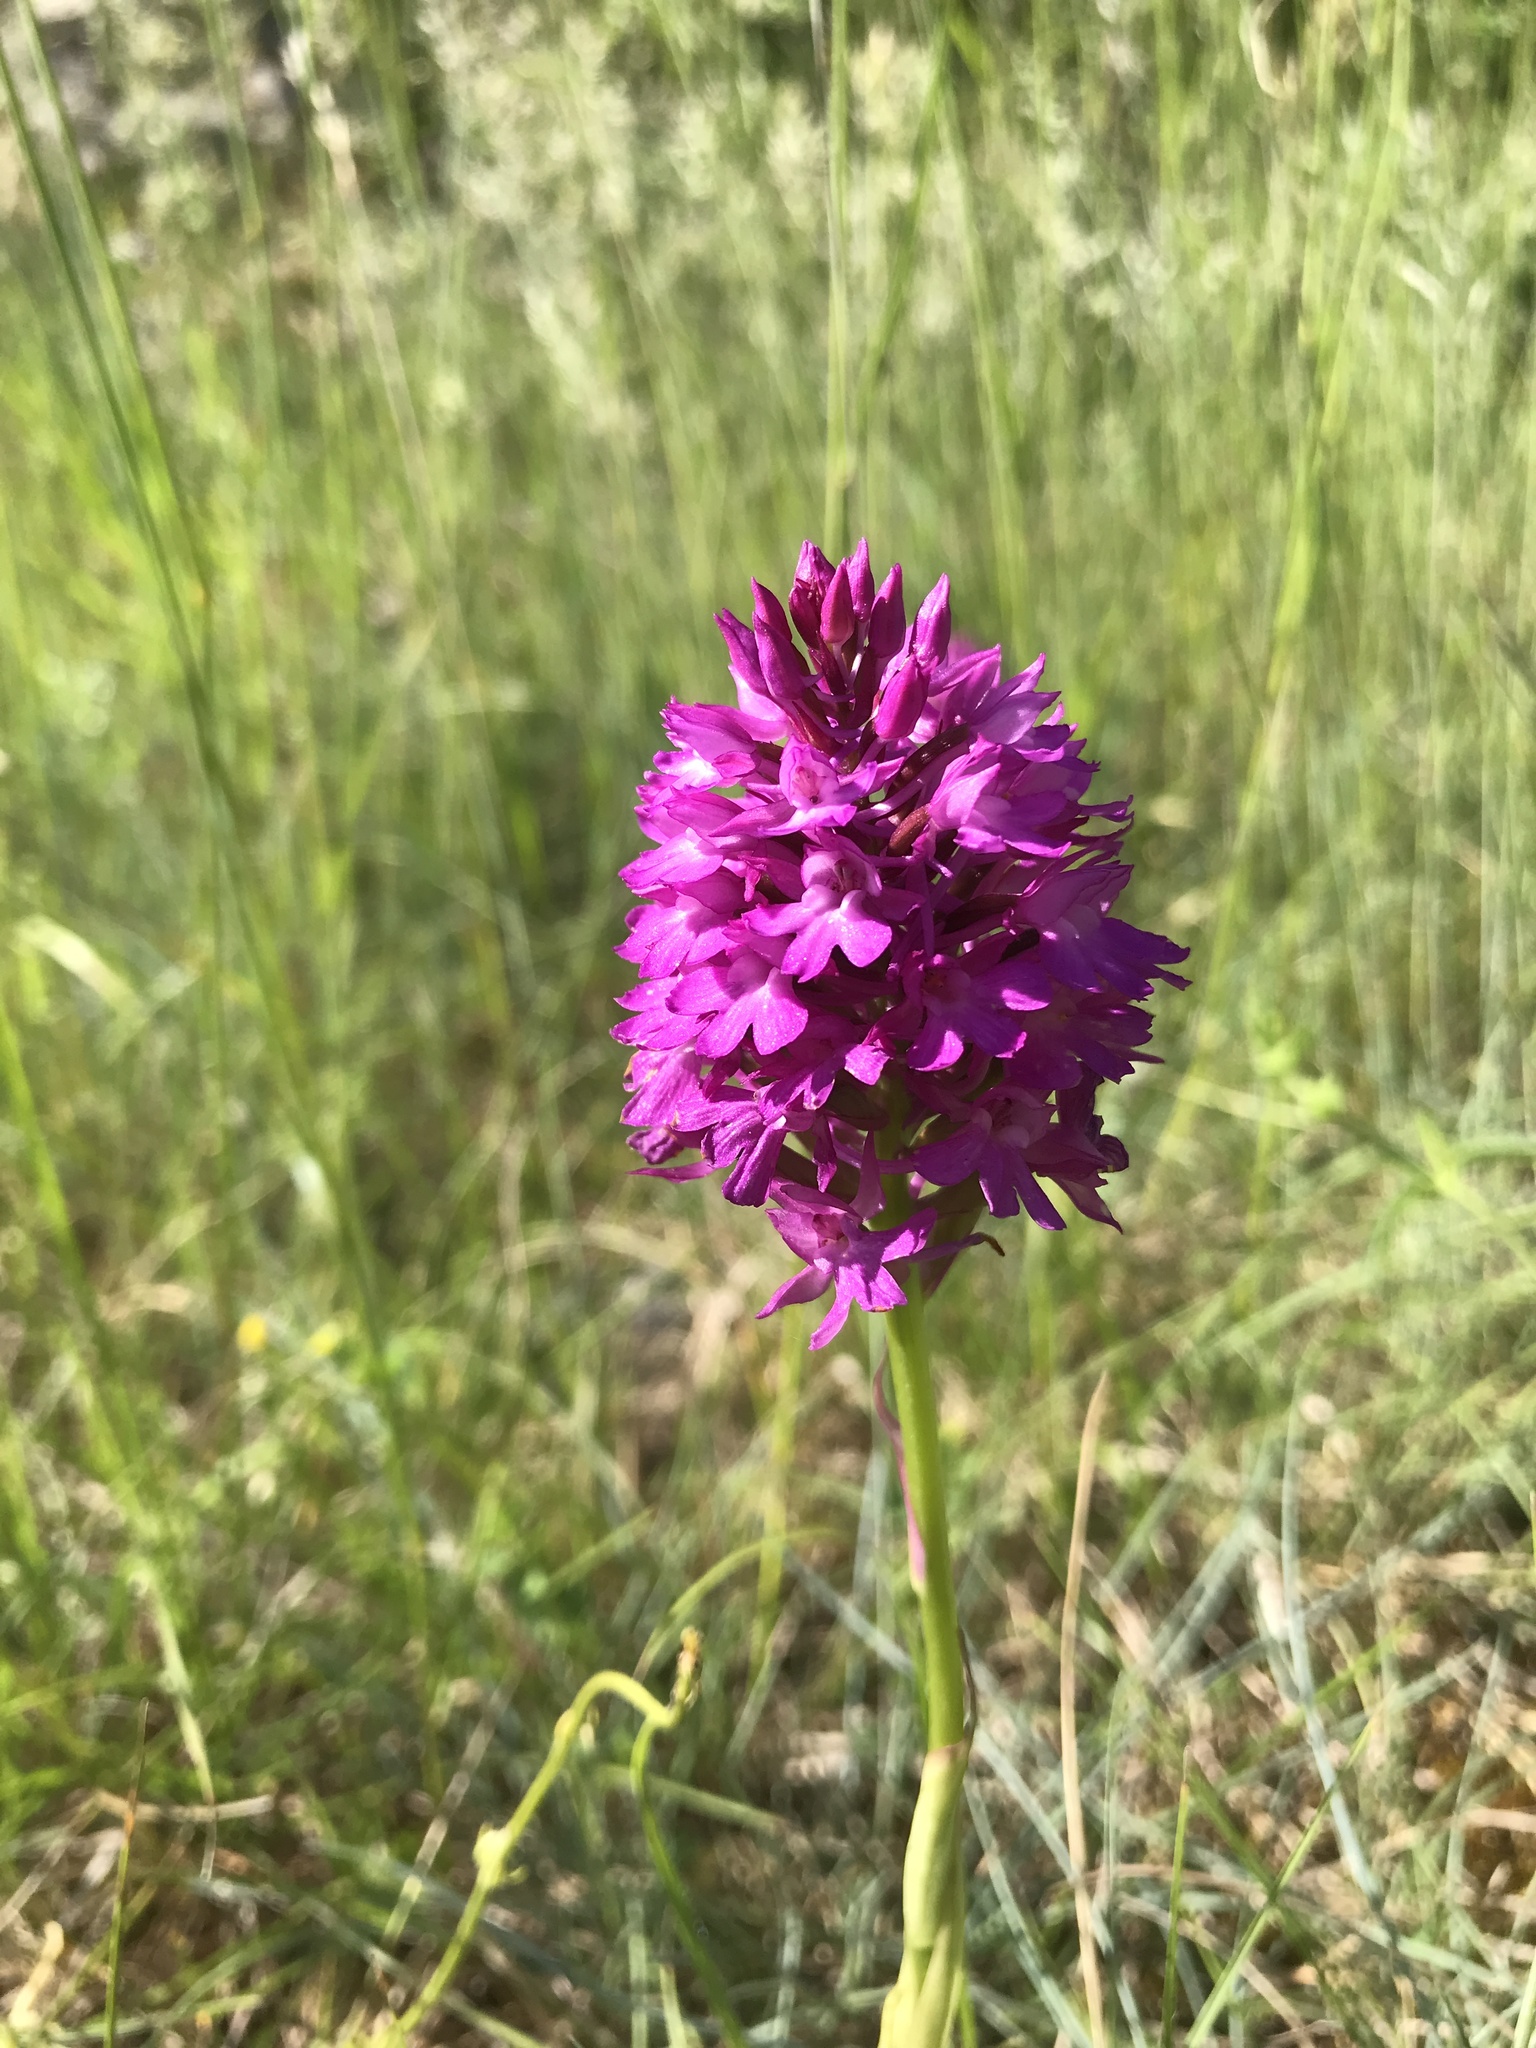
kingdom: Plantae
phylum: Tracheophyta
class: Liliopsida
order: Asparagales
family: Orchidaceae
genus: Anacamptis
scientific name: Anacamptis pyramidalis
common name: Pyramidal orchid
